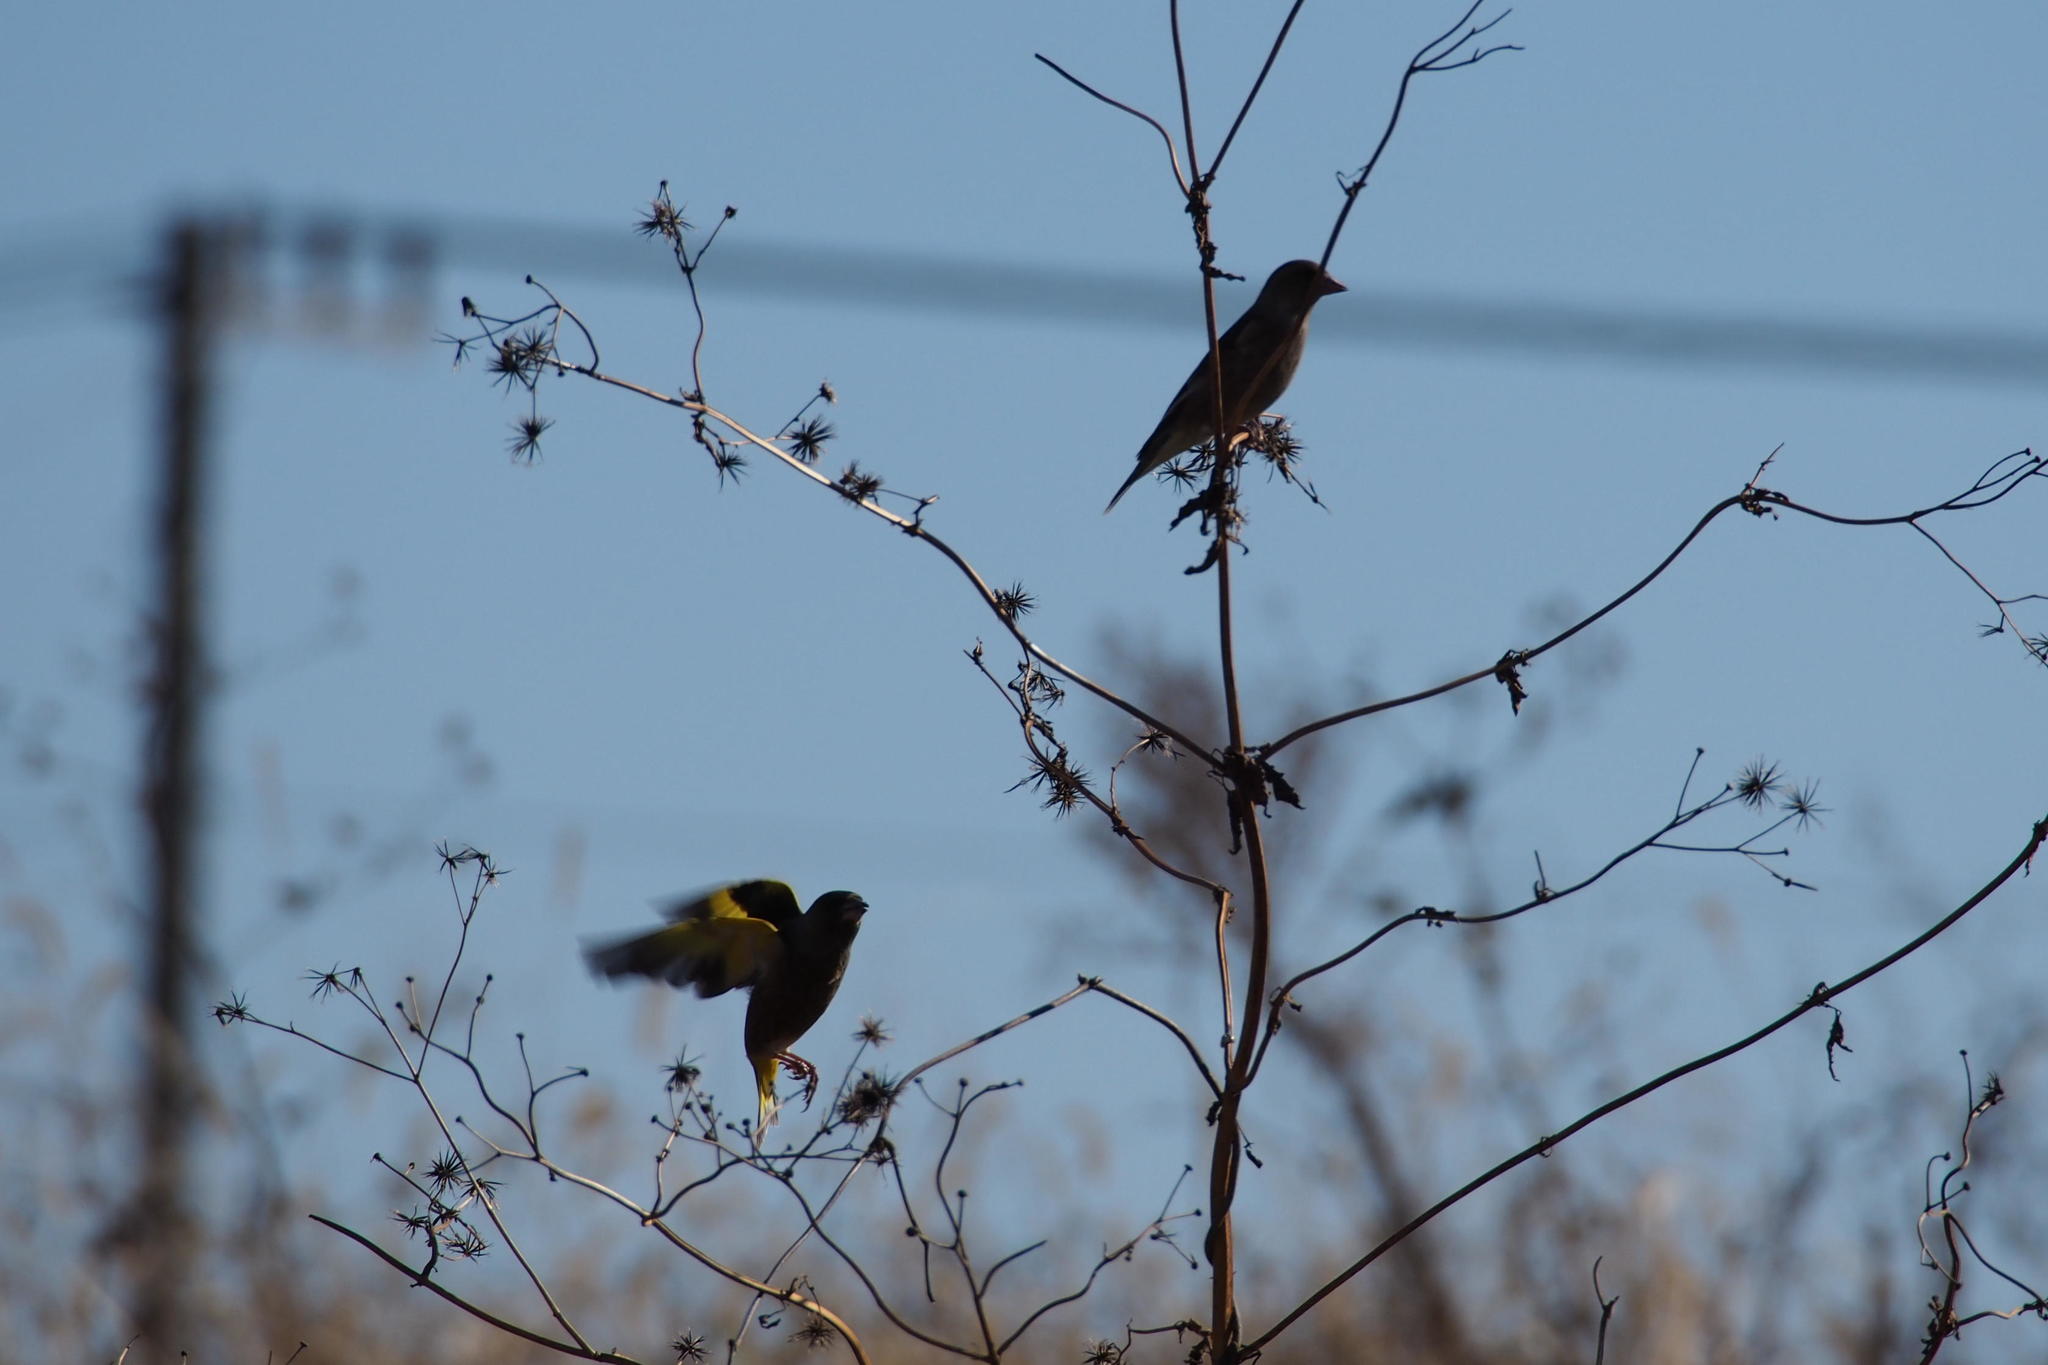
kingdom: Plantae
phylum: Tracheophyta
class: Liliopsida
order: Poales
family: Poaceae
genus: Chloris
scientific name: Chloris sinica
